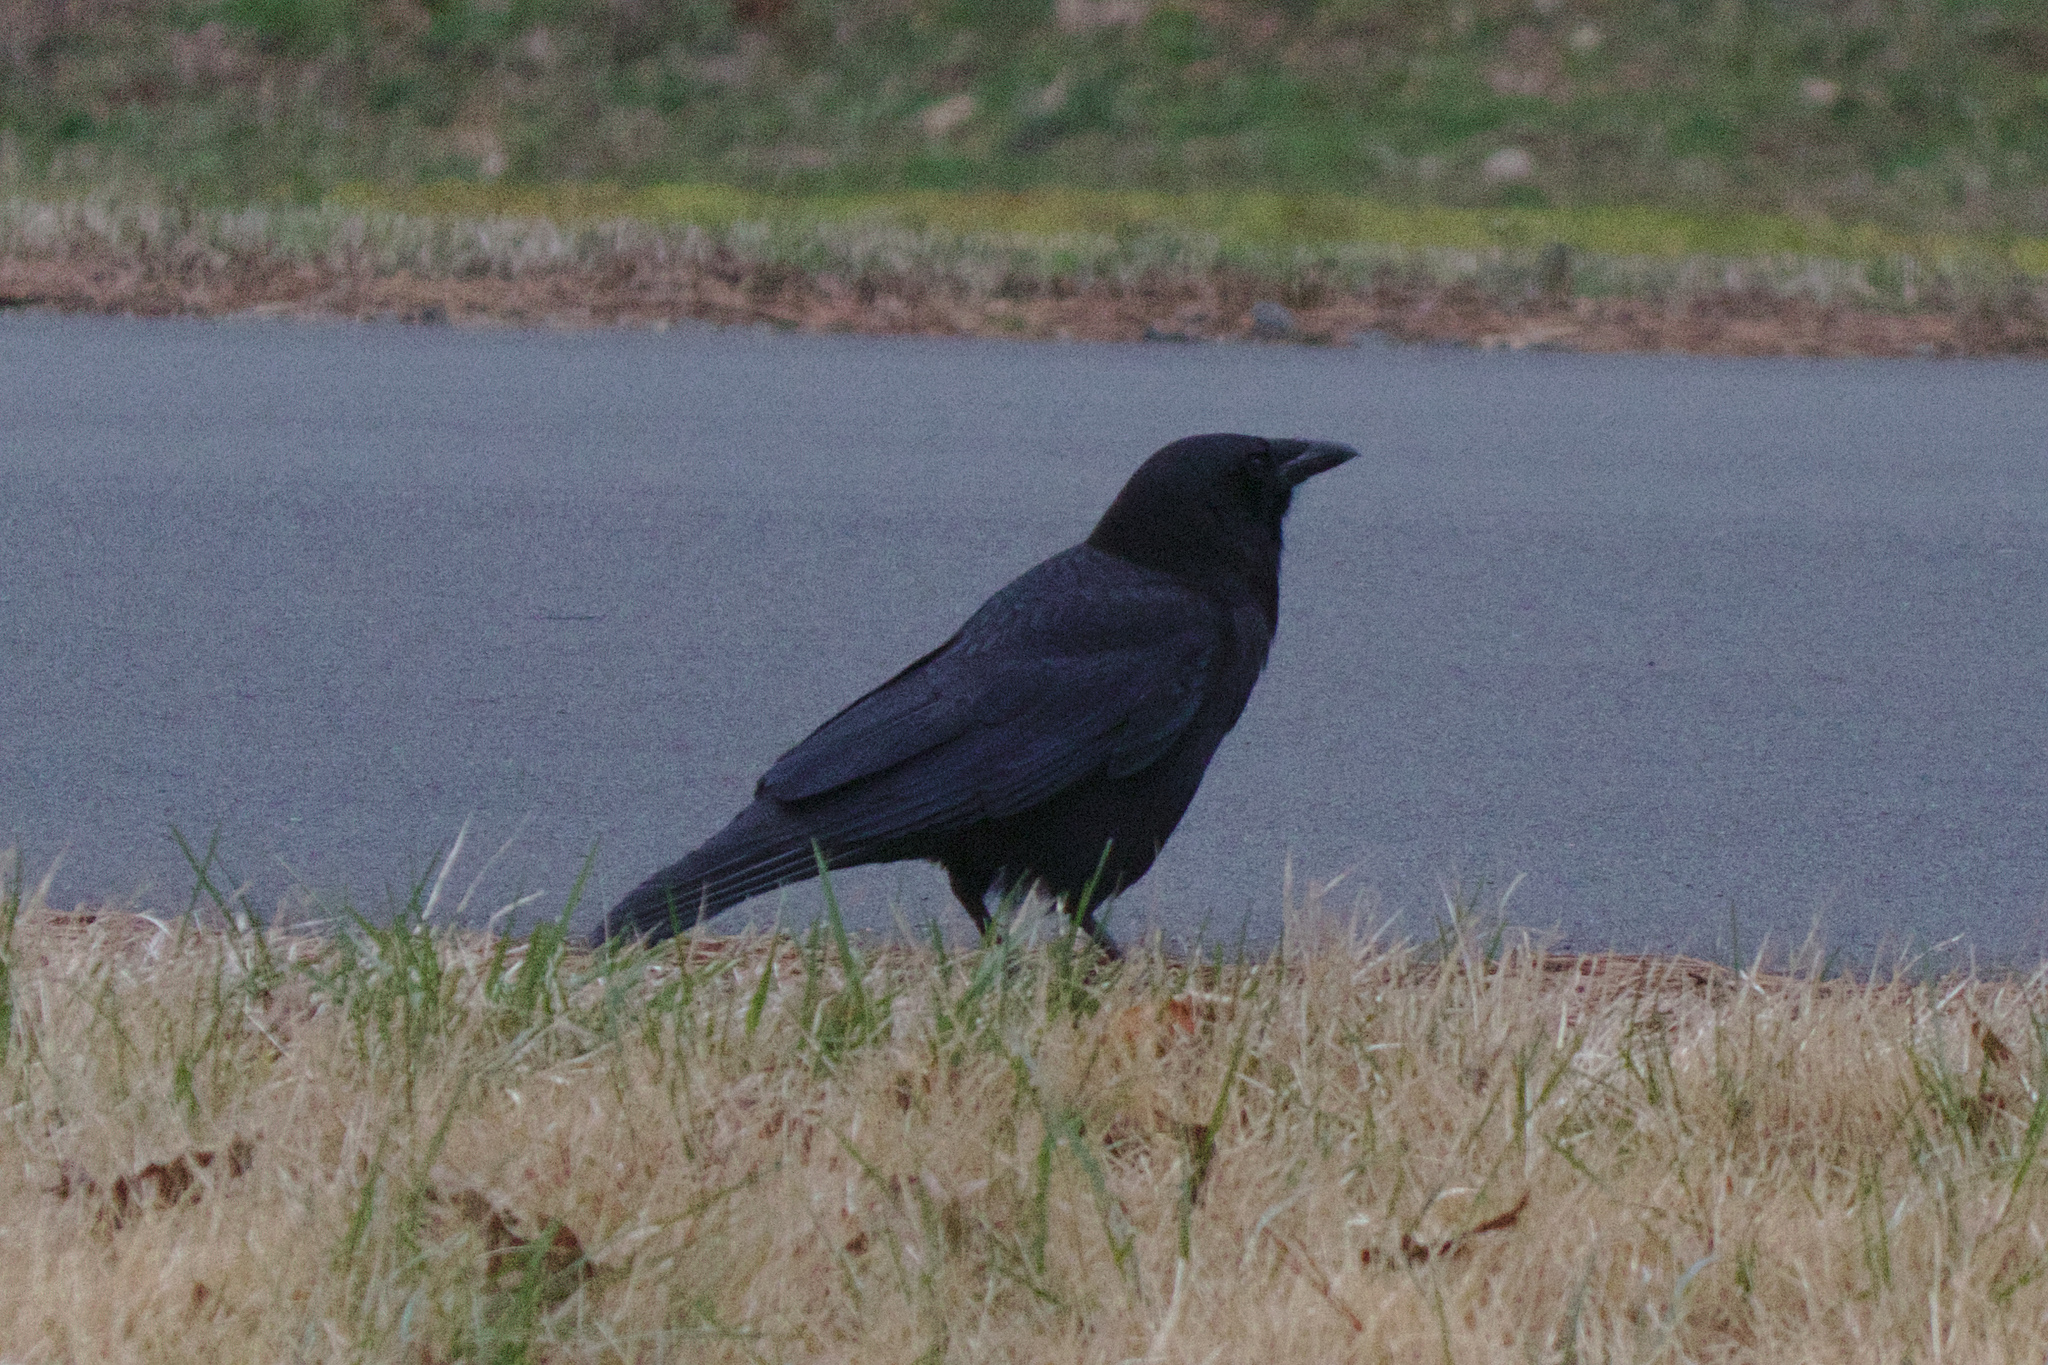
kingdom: Animalia
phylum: Chordata
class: Aves
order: Passeriformes
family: Corvidae
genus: Corvus
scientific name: Corvus brachyrhynchos
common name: American crow
